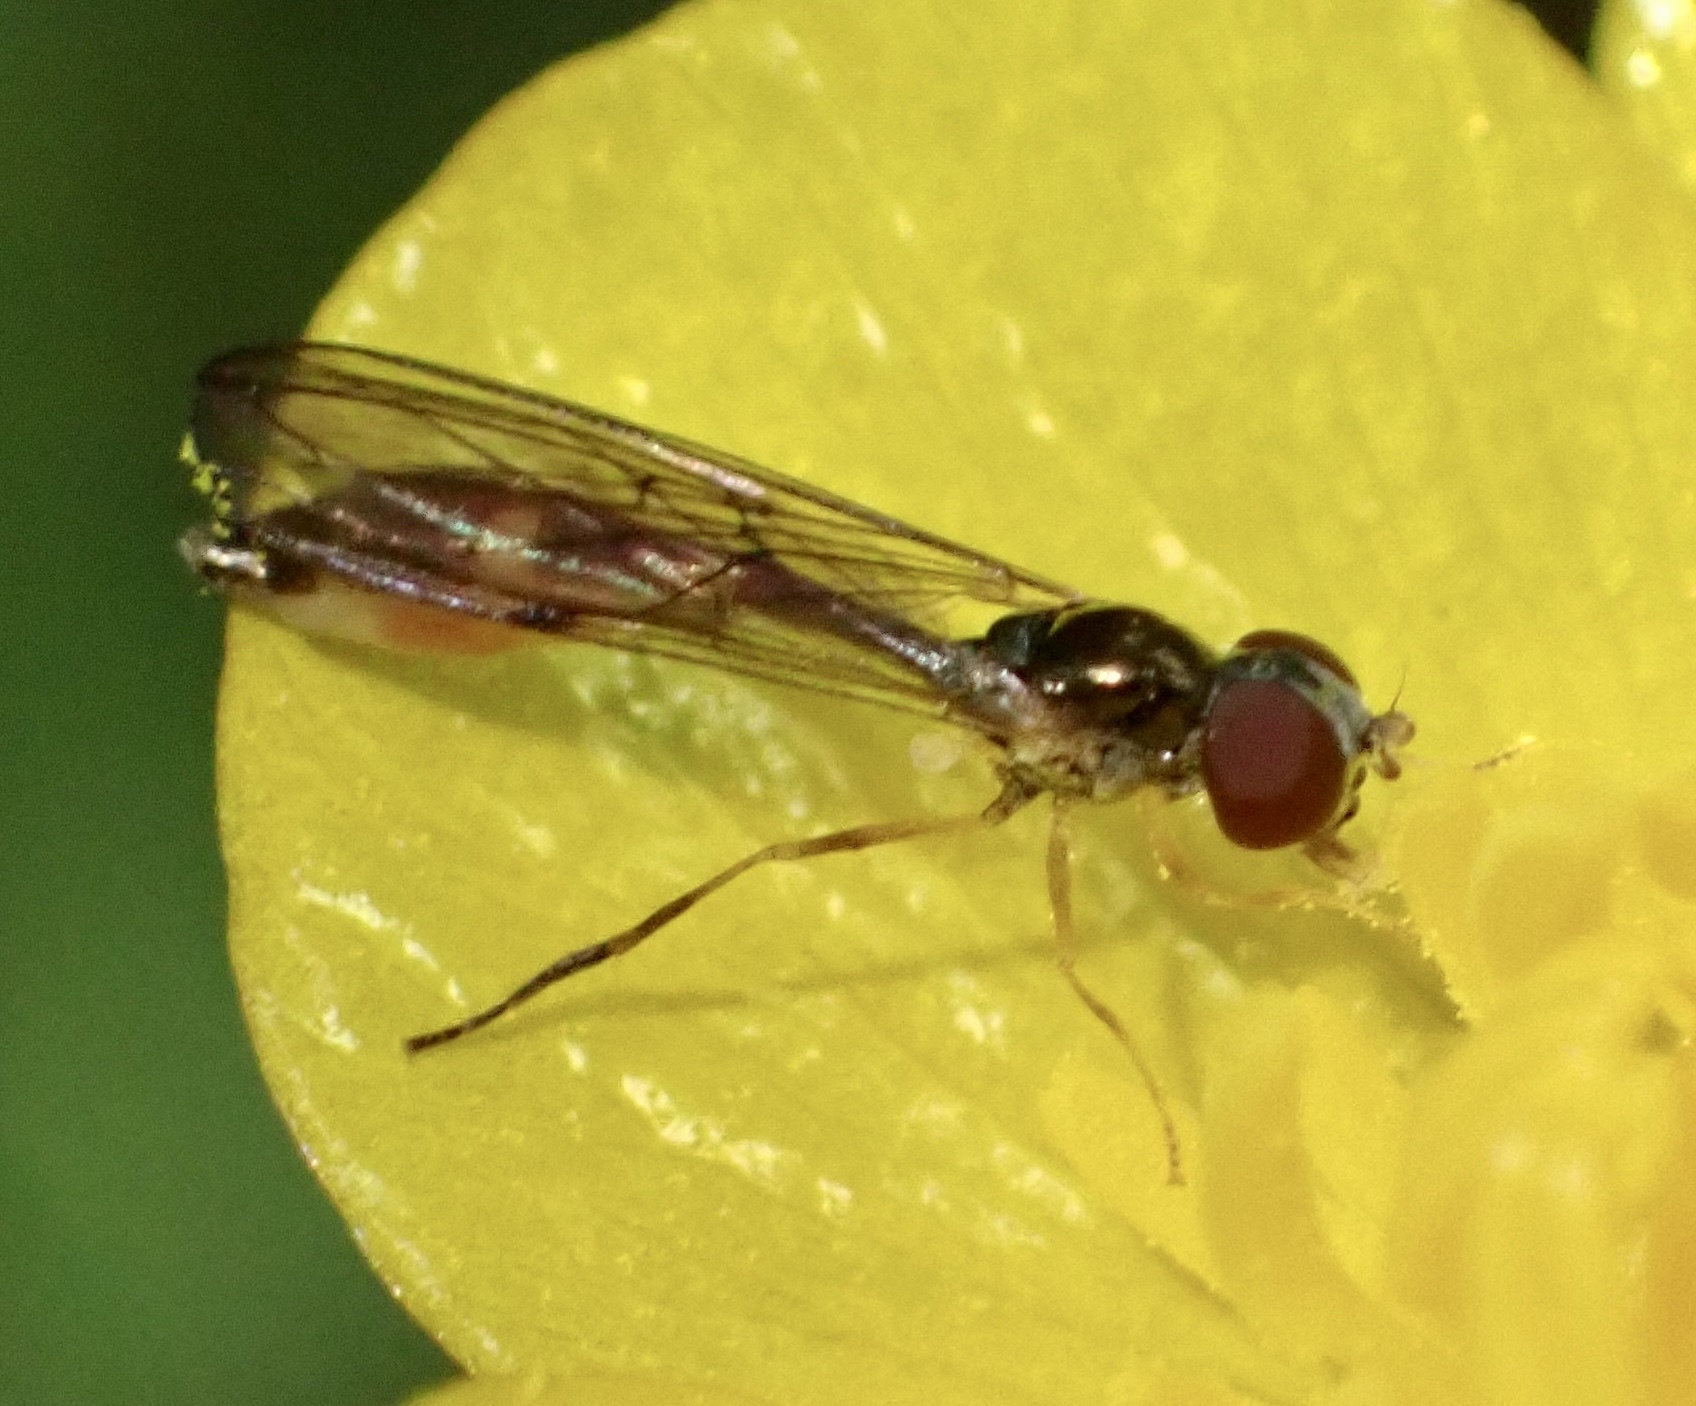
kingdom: Animalia
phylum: Arthropoda
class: Insecta
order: Diptera
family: Syrphidae
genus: Baccha
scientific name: Baccha elongata
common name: Common dainty
